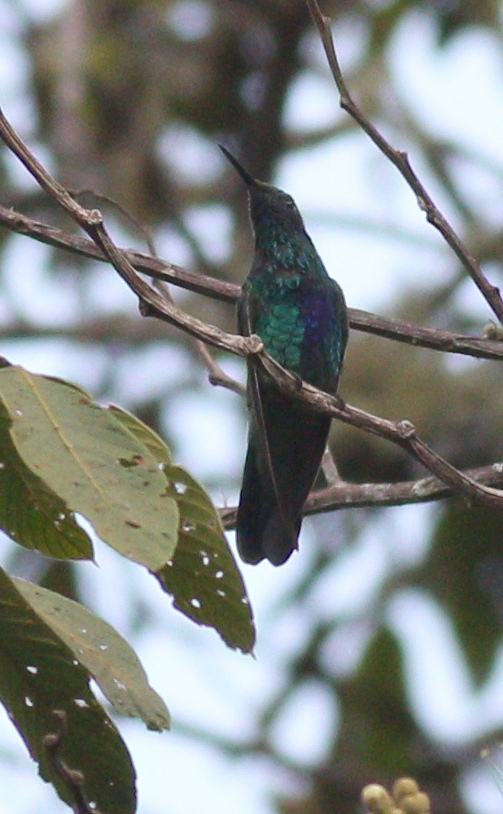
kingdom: Animalia
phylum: Chordata
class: Aves
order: Apodiformes
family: Trochilidae
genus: Colibri
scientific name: Colibri coruscans
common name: Sparkling violetear
